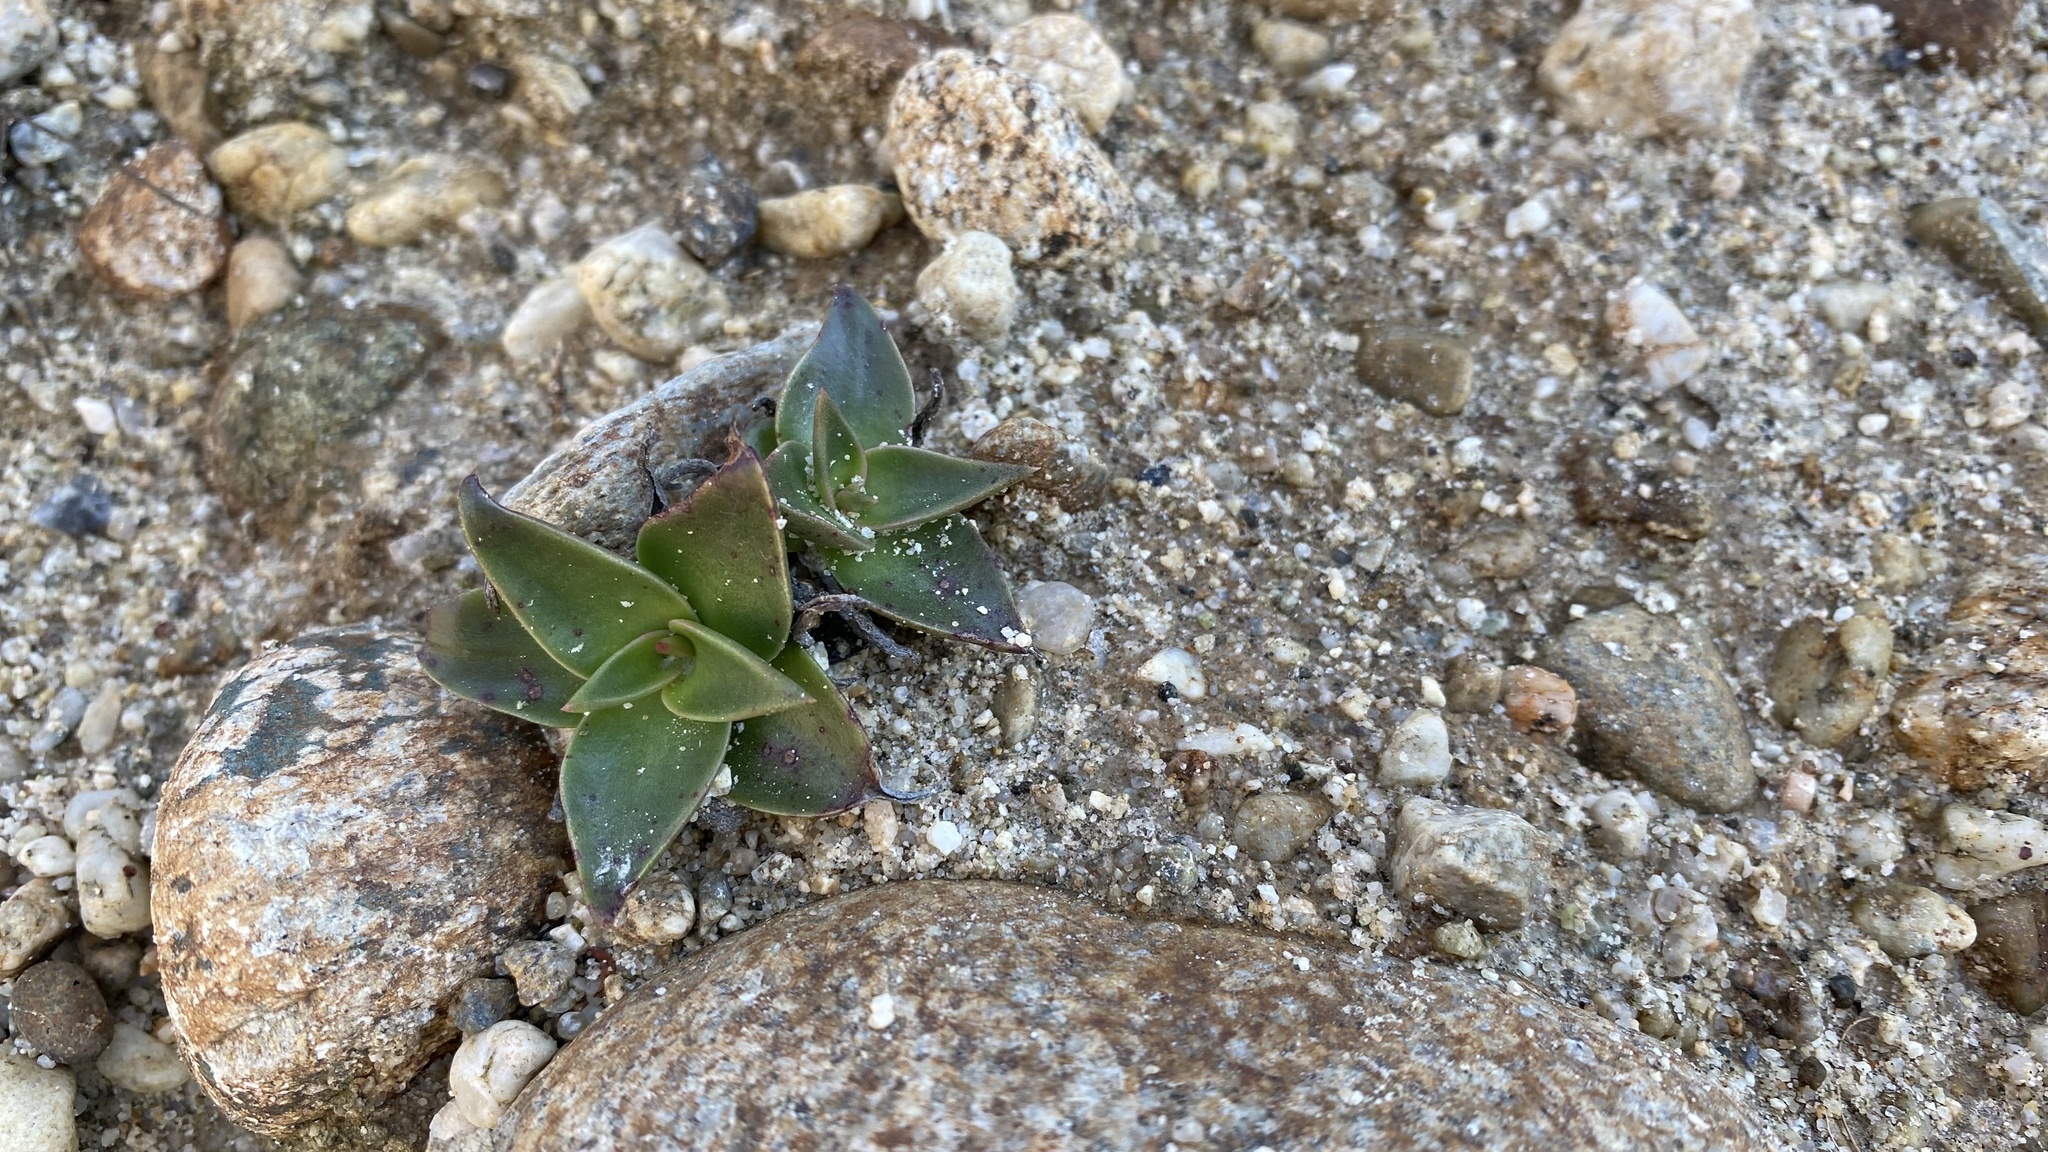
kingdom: Plantae
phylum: Tracheophyta
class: Magnoliopsida
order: Saxifragales
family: Crassulaceae
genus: Dudleya
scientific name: Dudleya lanceolata
